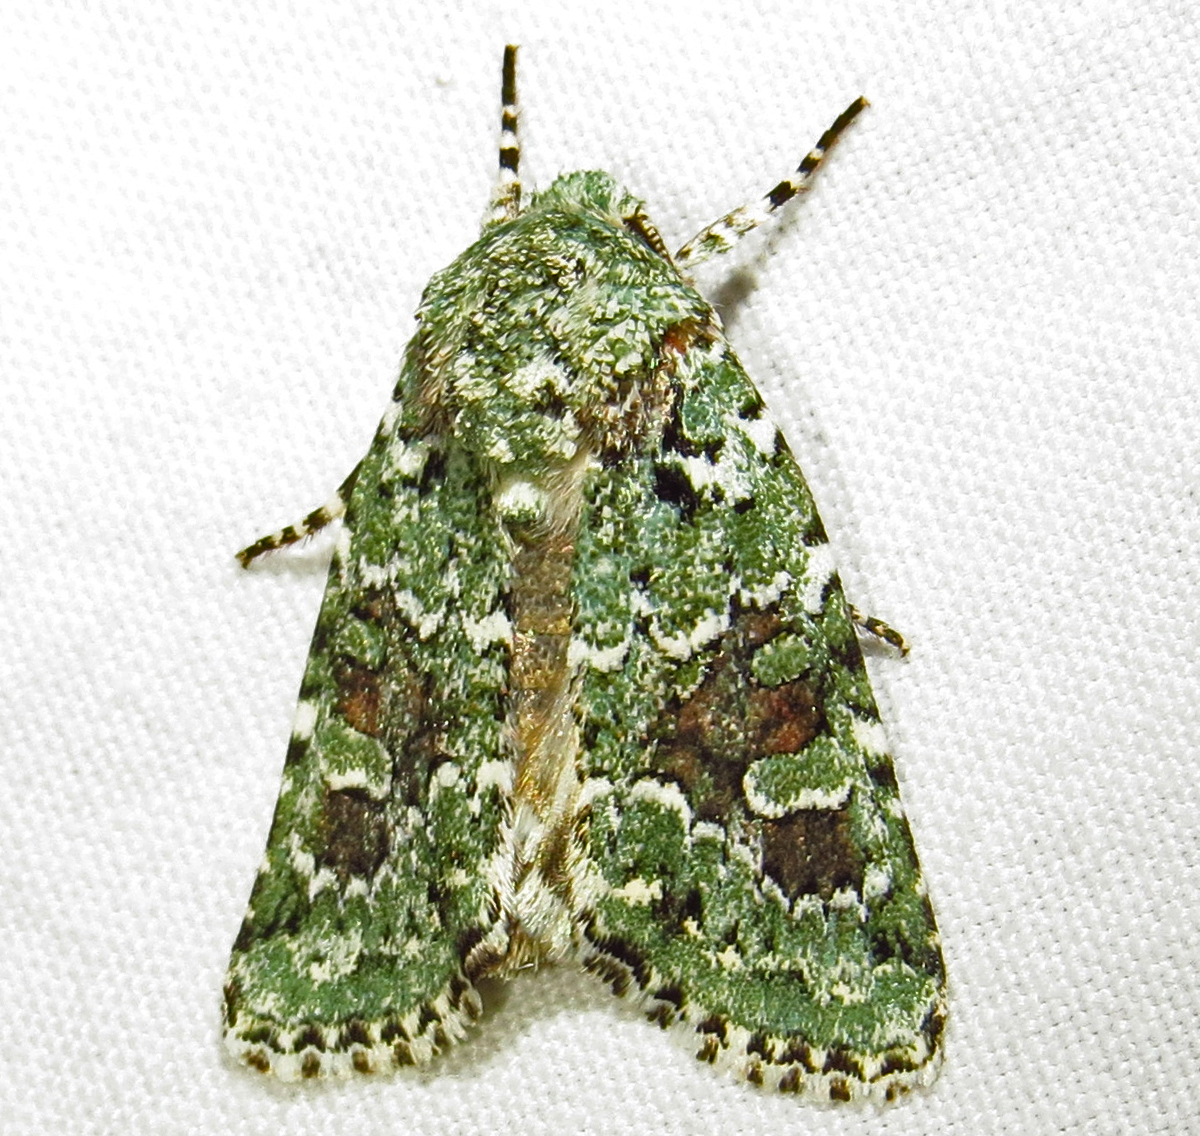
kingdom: Animalia
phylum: Arthropoda
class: Insecta
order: Lepidoptera
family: Noctuidae
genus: Lacinipolia
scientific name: Lacinipolia laudabilis
